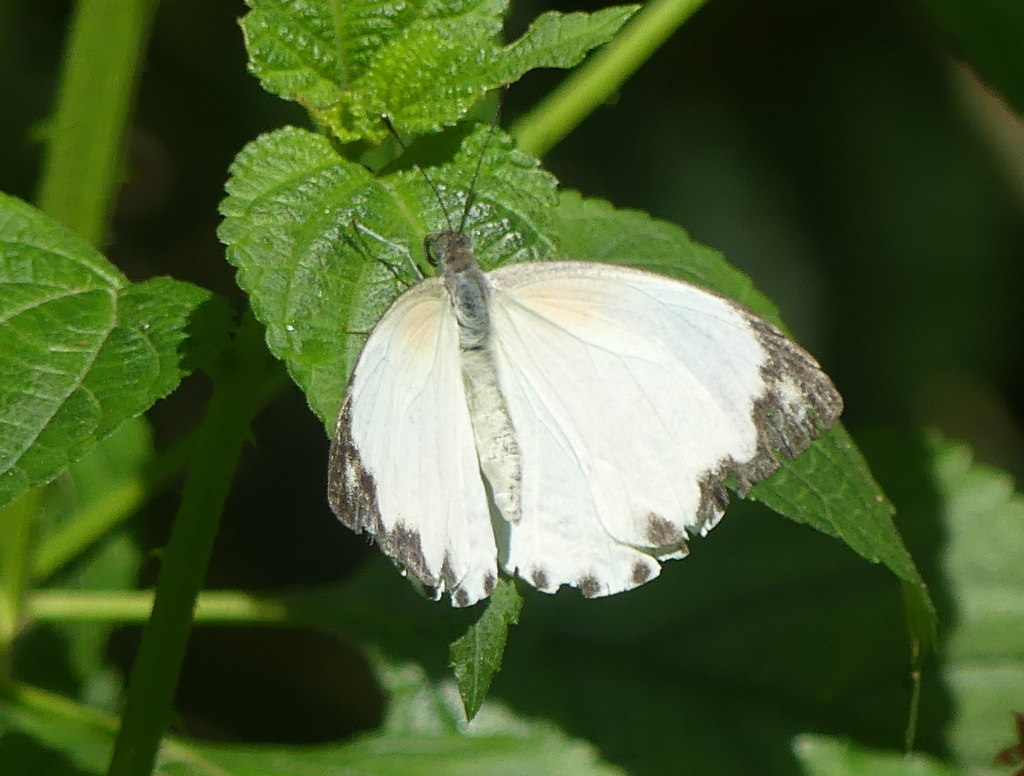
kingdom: Animalia
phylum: Arthropoda
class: Insecta
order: Lepidoptera
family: Pieridae
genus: Nepheronia
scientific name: Nepheronia thalassina
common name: Cambridge vagrant
